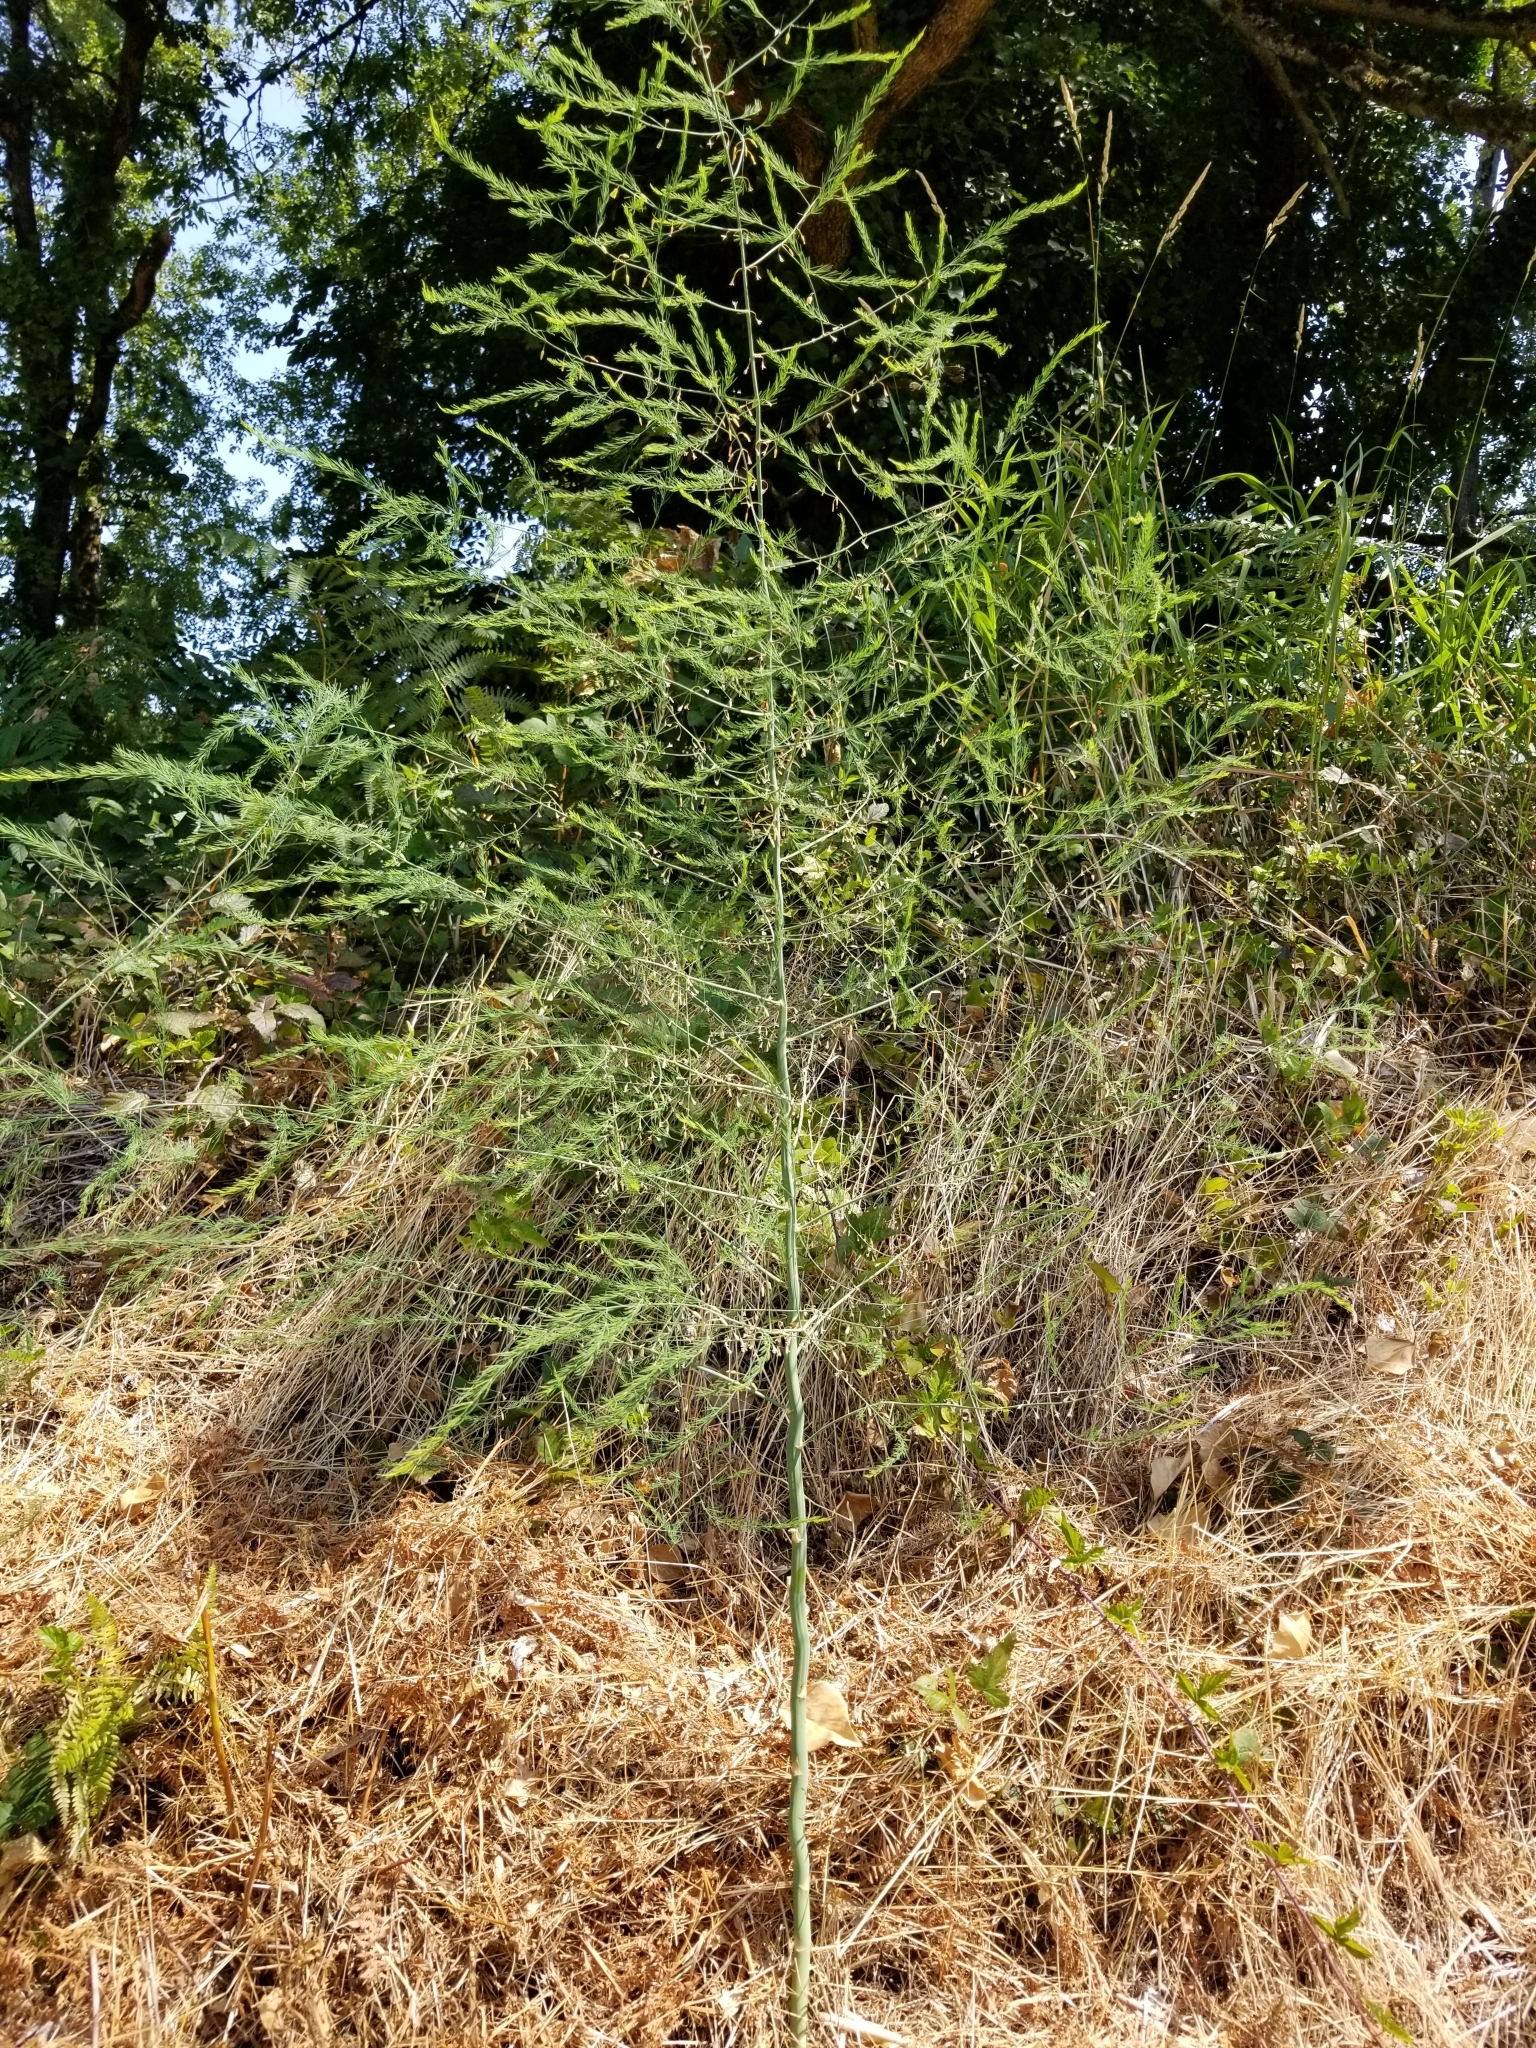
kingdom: Plantae
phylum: Tracheophyta
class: Liliopsida
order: Asparagales
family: Asparagaceae
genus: Asparagus
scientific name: Asparagus officinalis
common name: Garden asparagus
